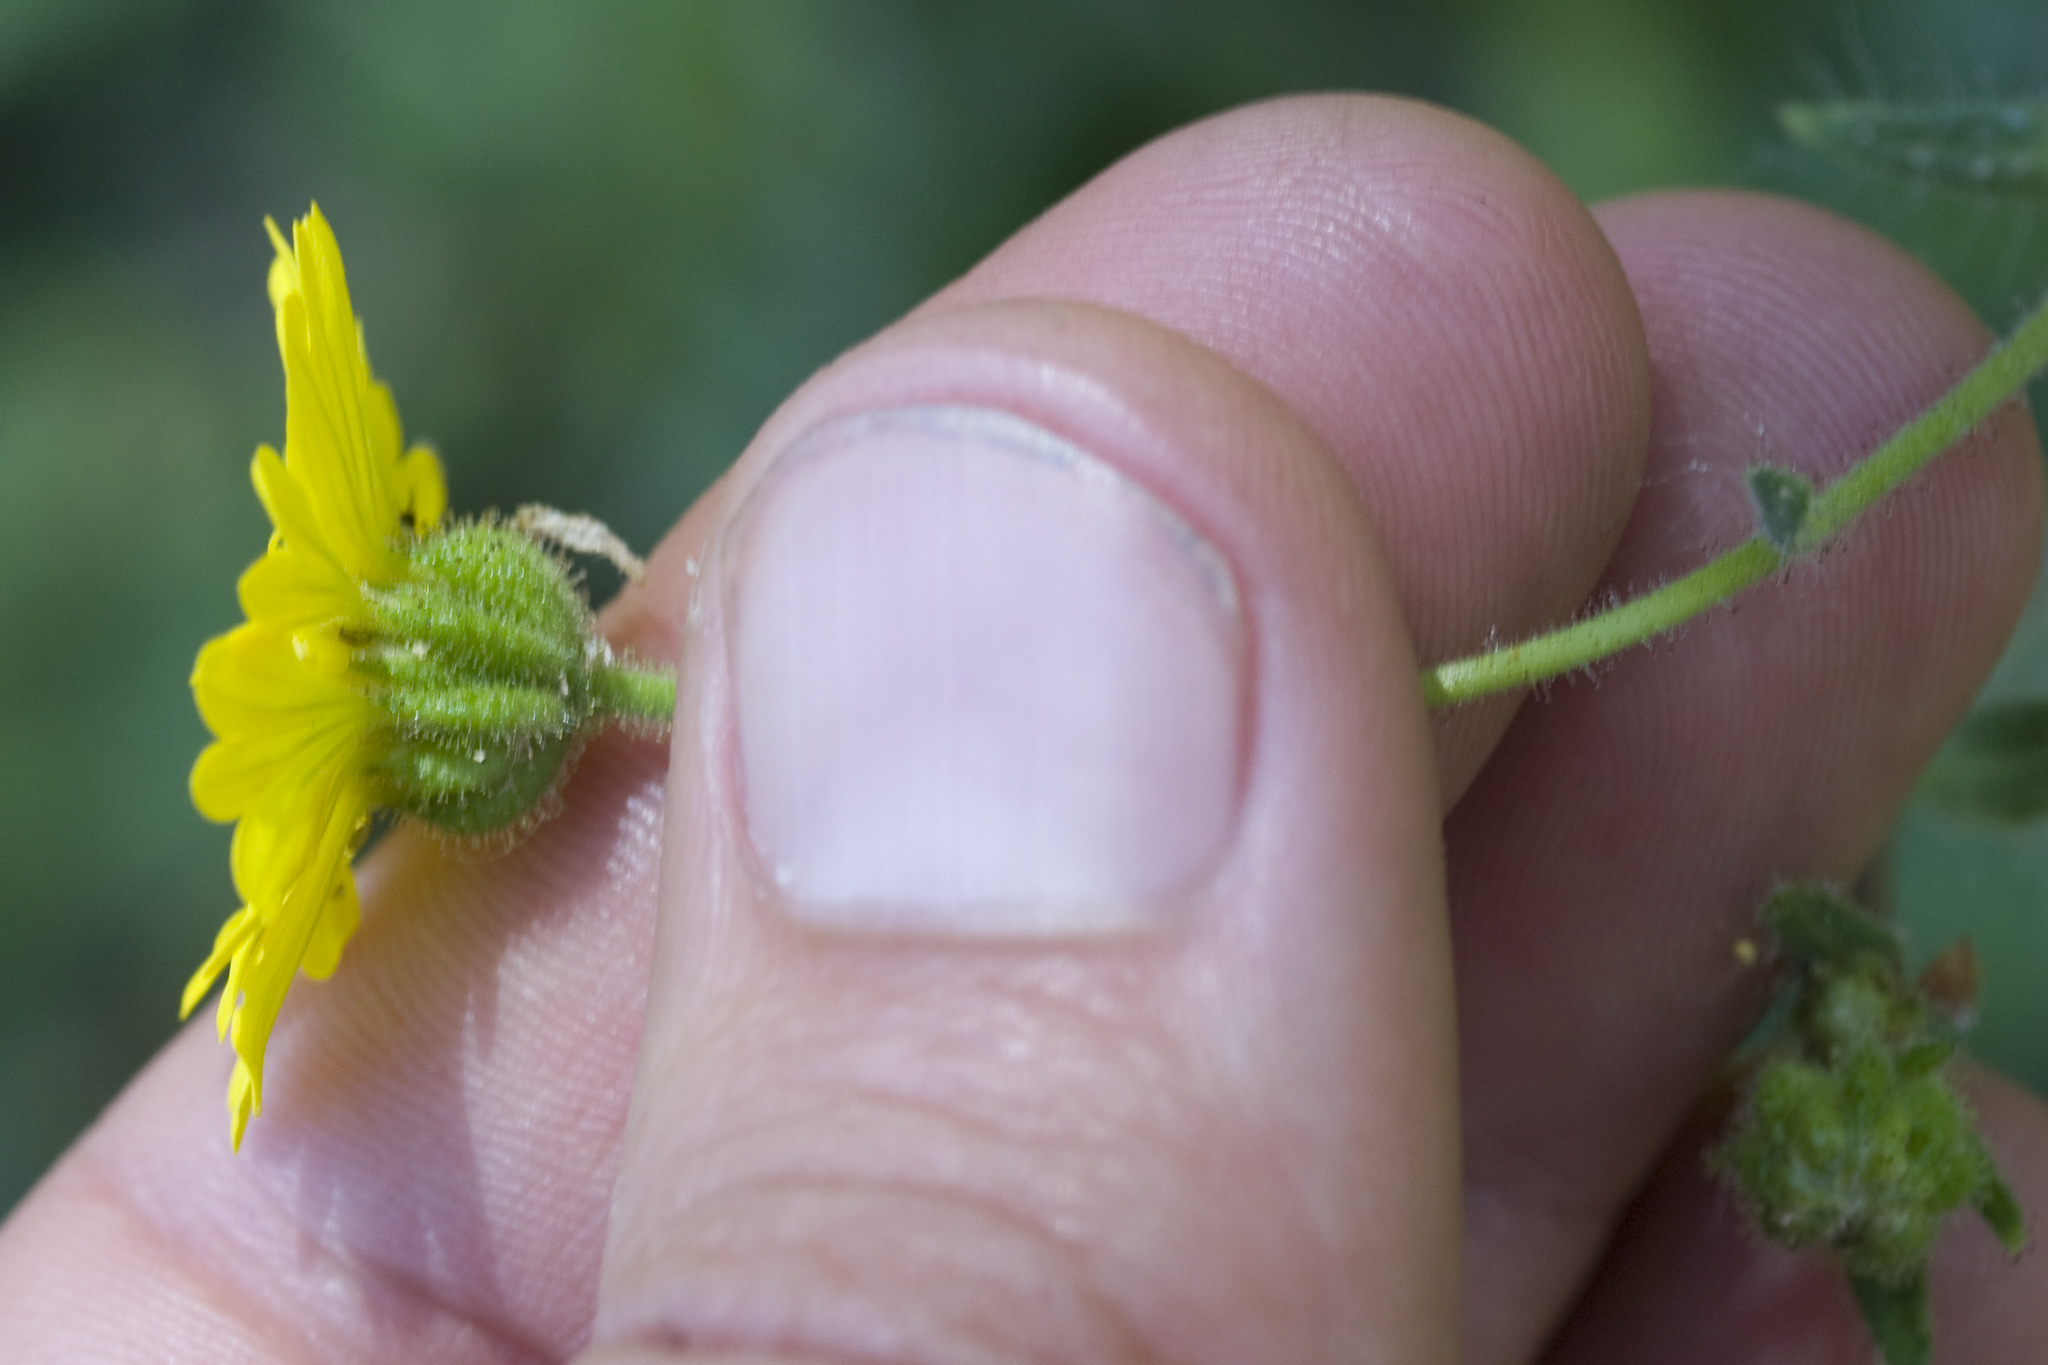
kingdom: Plantae
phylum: Tracheophyta
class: Magnoliopsida
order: Asterales
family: Asteraceae
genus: Anisocarpus
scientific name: Anisocarpus madioides
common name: Woodland madia
